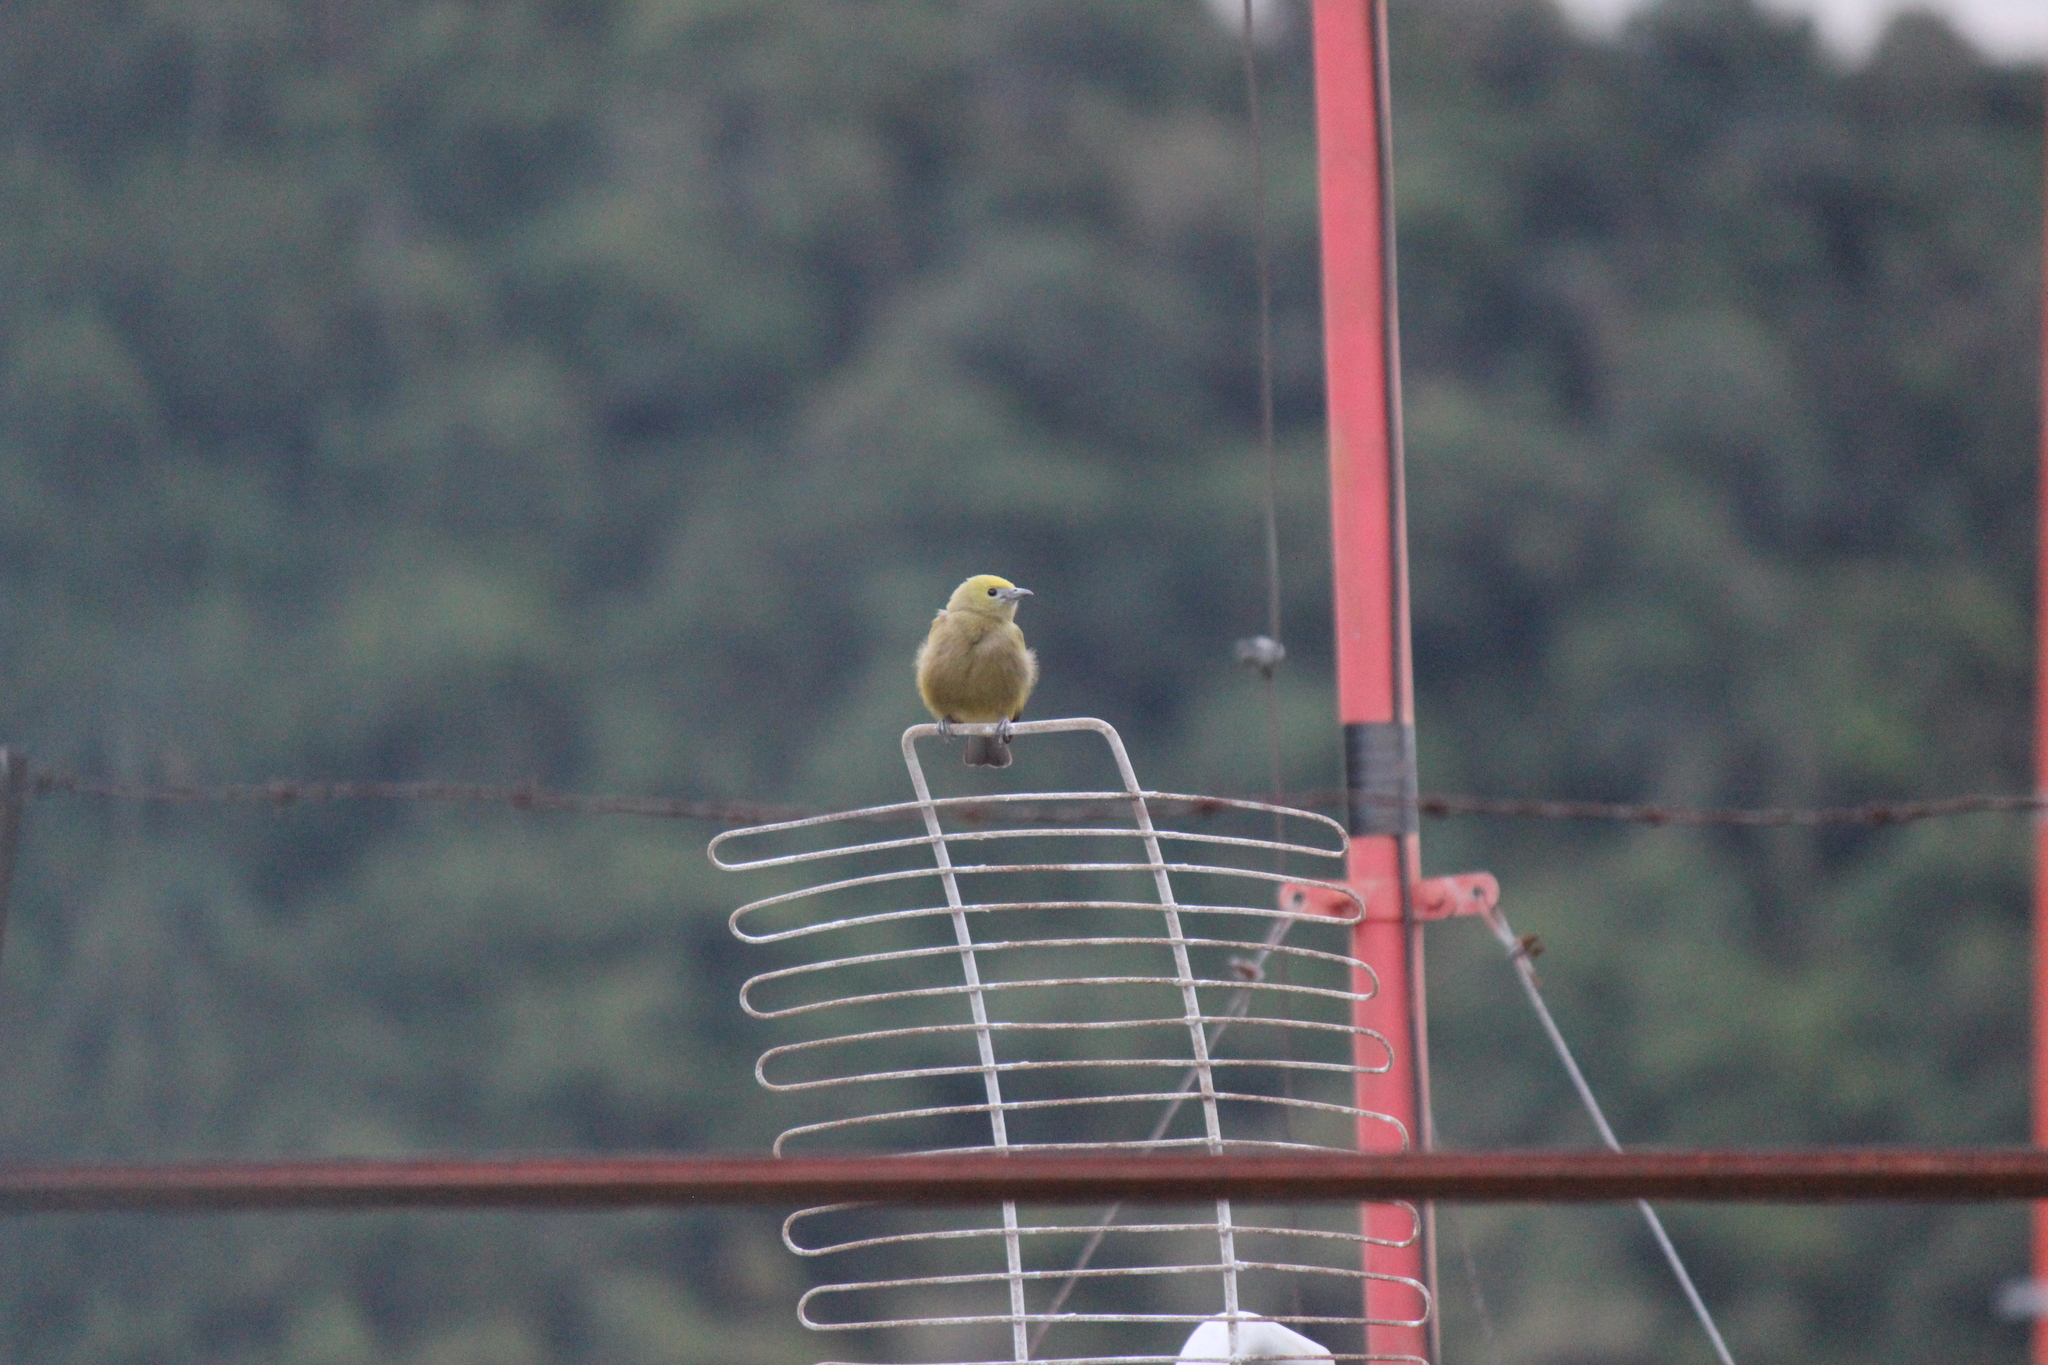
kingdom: Animalia
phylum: Chordata
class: Aves
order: Passeriformes
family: Thraupidae
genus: Thraupis
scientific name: Thraupis palmarum
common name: Palm tanager
